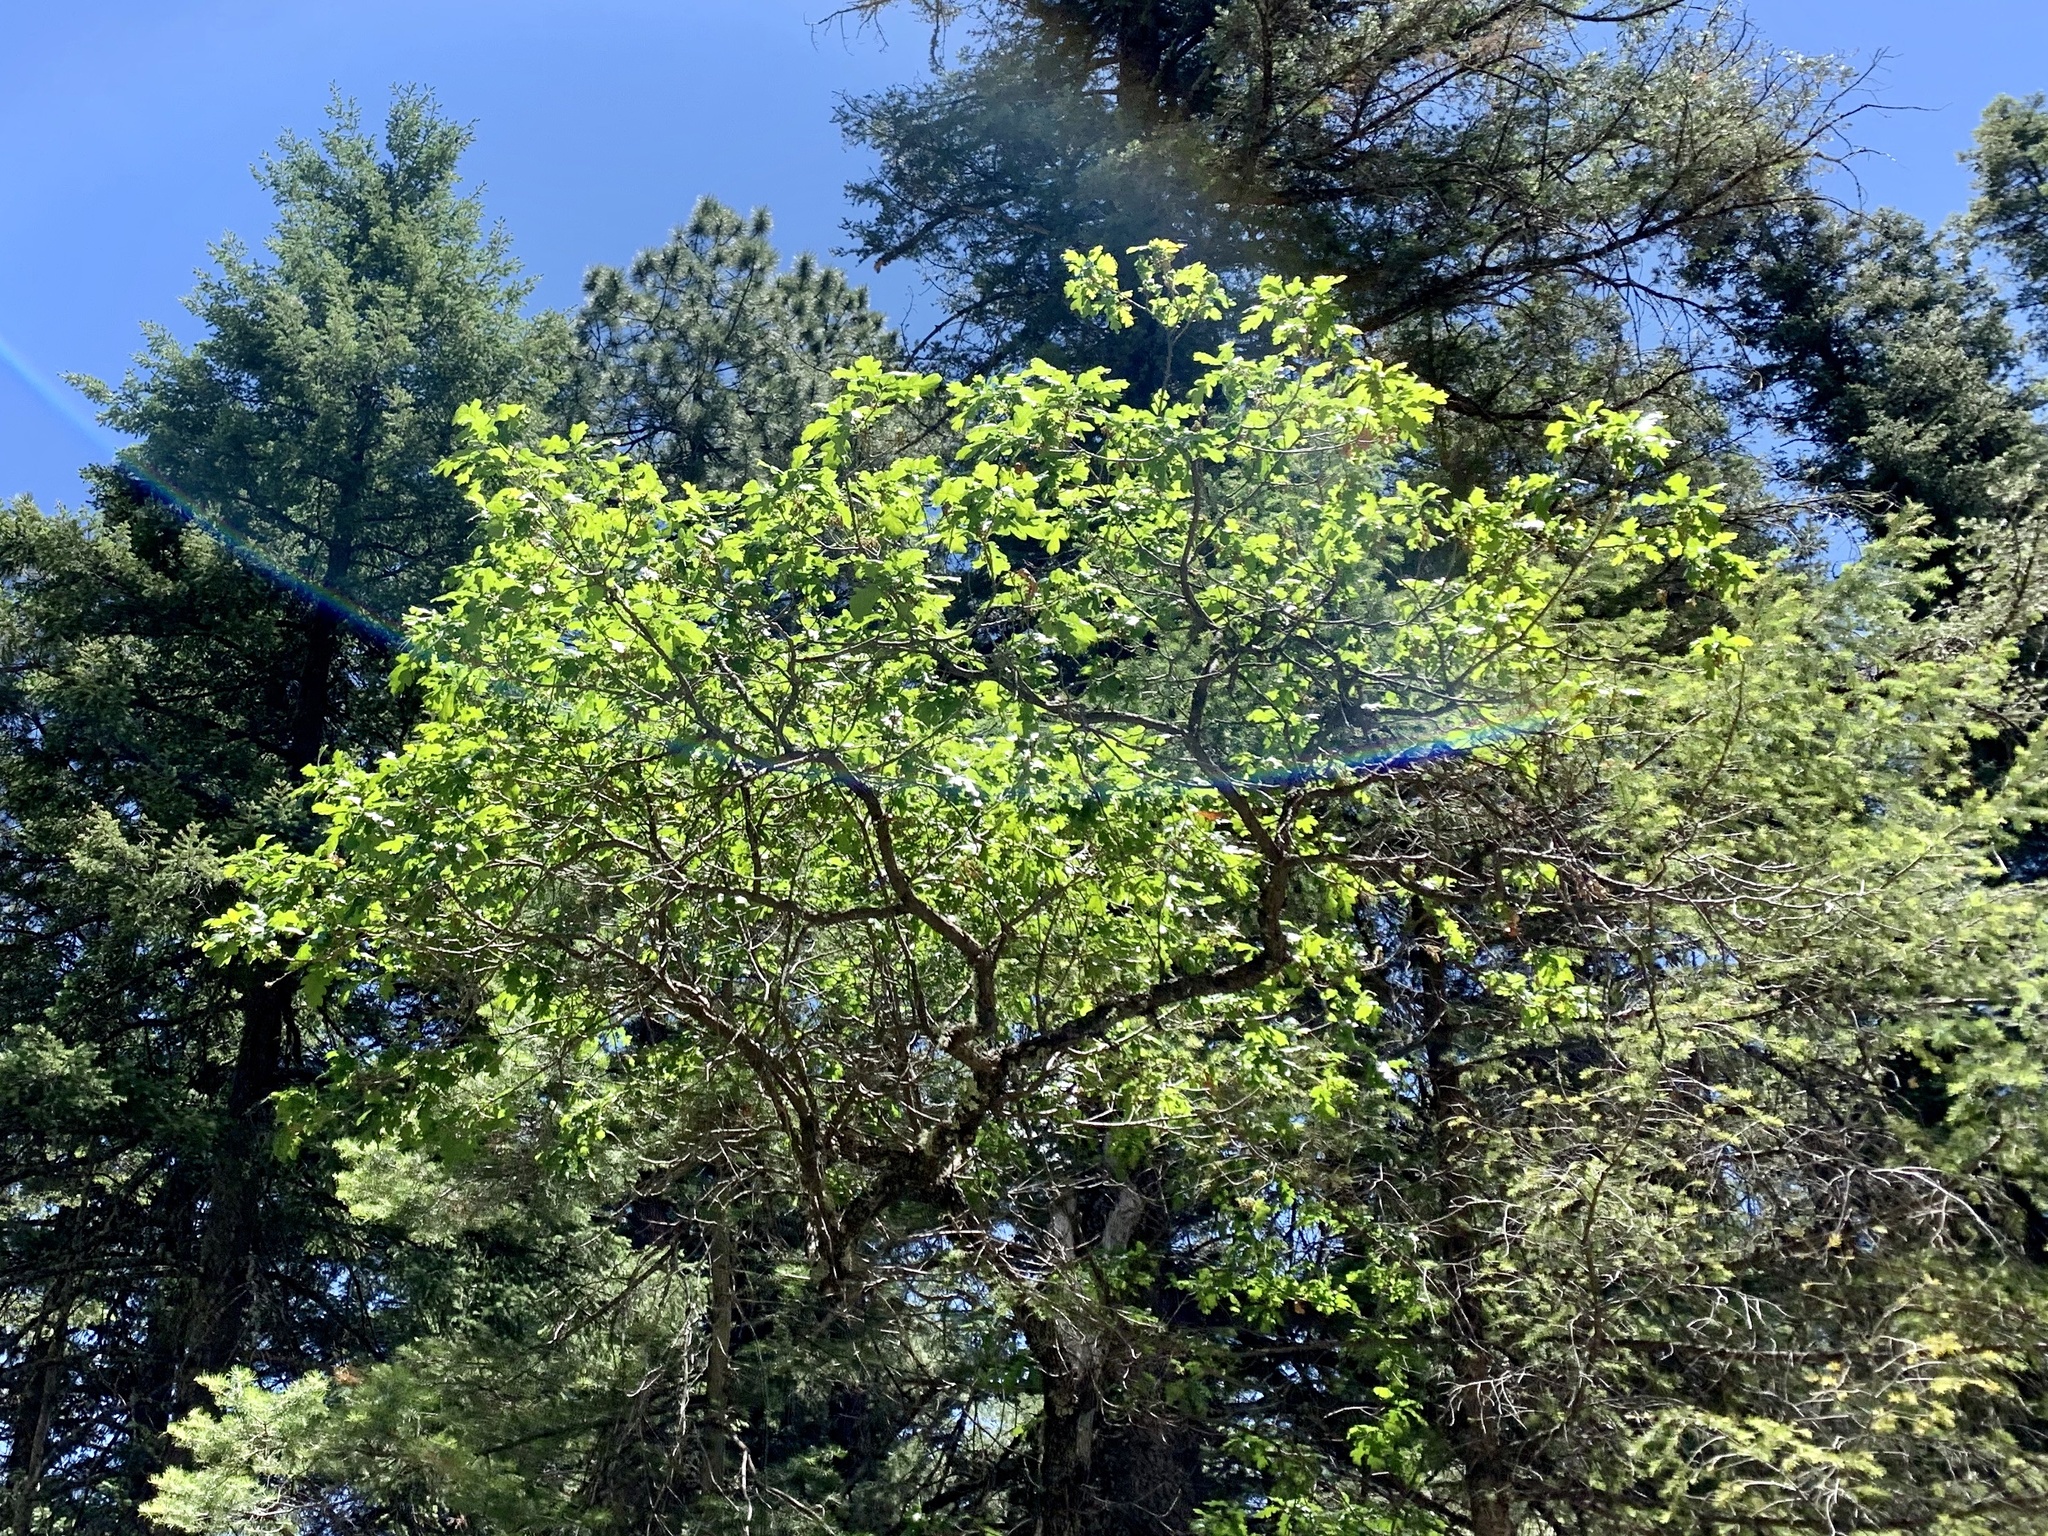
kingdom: Plantae
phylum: Tracheophyta
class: Magnoliopsida
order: Fagales
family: Fagaceae
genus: Quercus
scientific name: Quercus gambelii
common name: Gambel oak
